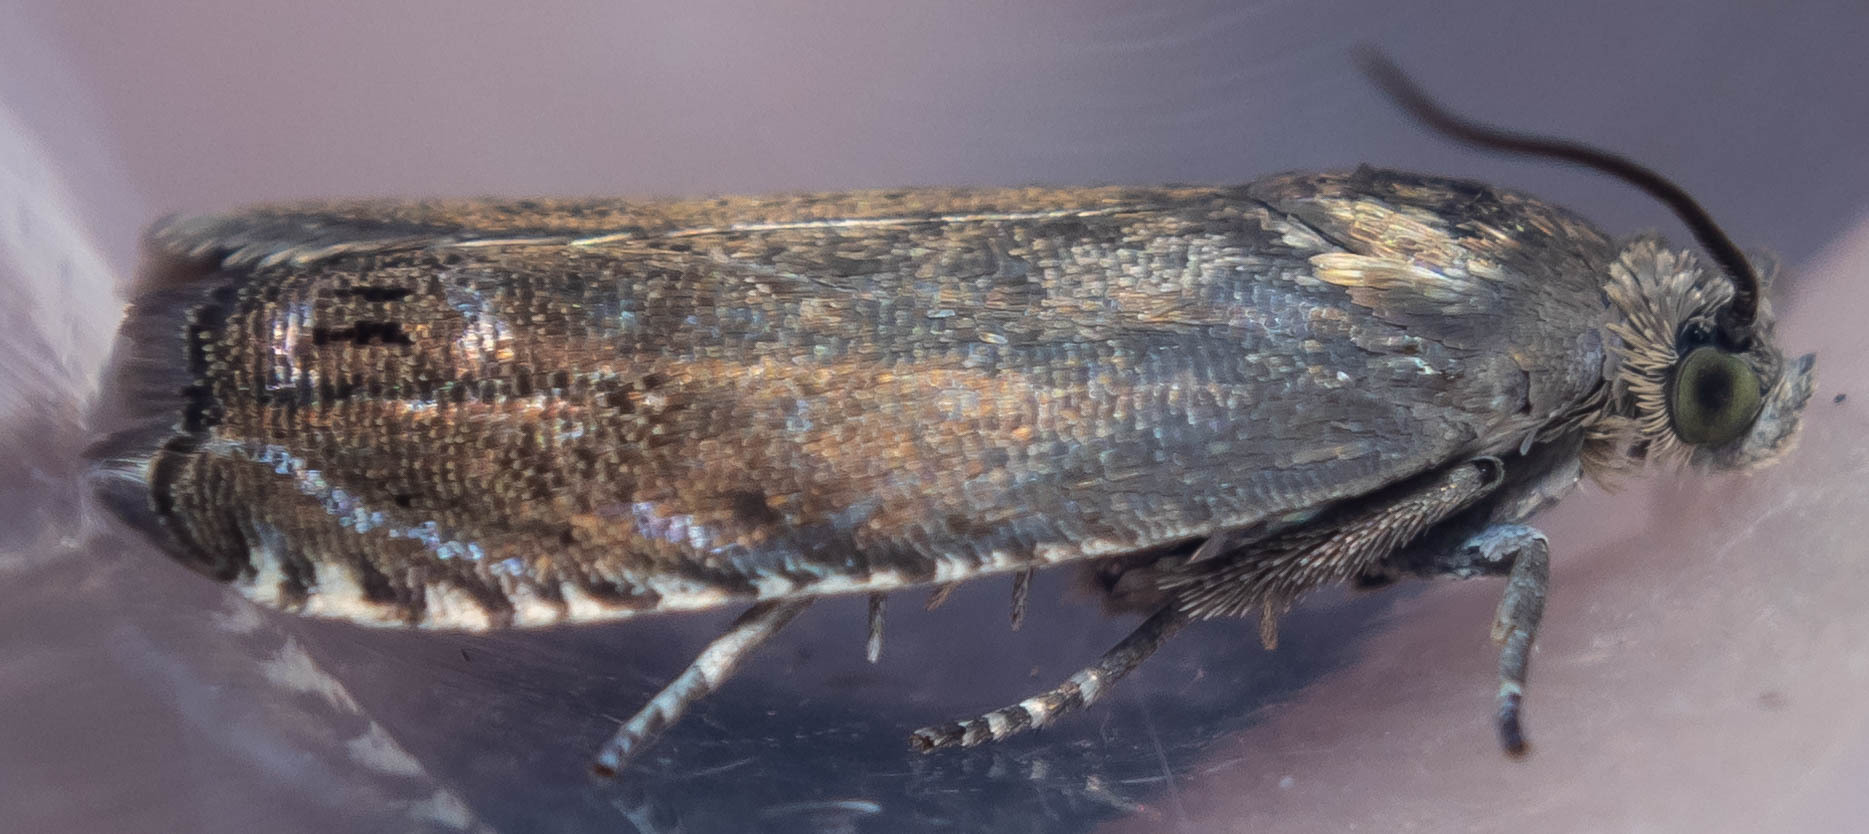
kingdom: Animalia
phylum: Arthropoda
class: Insecta
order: Lepidoptera
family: Tortricidae
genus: Cydia
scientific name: Cydia nigricana
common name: Pea moth
